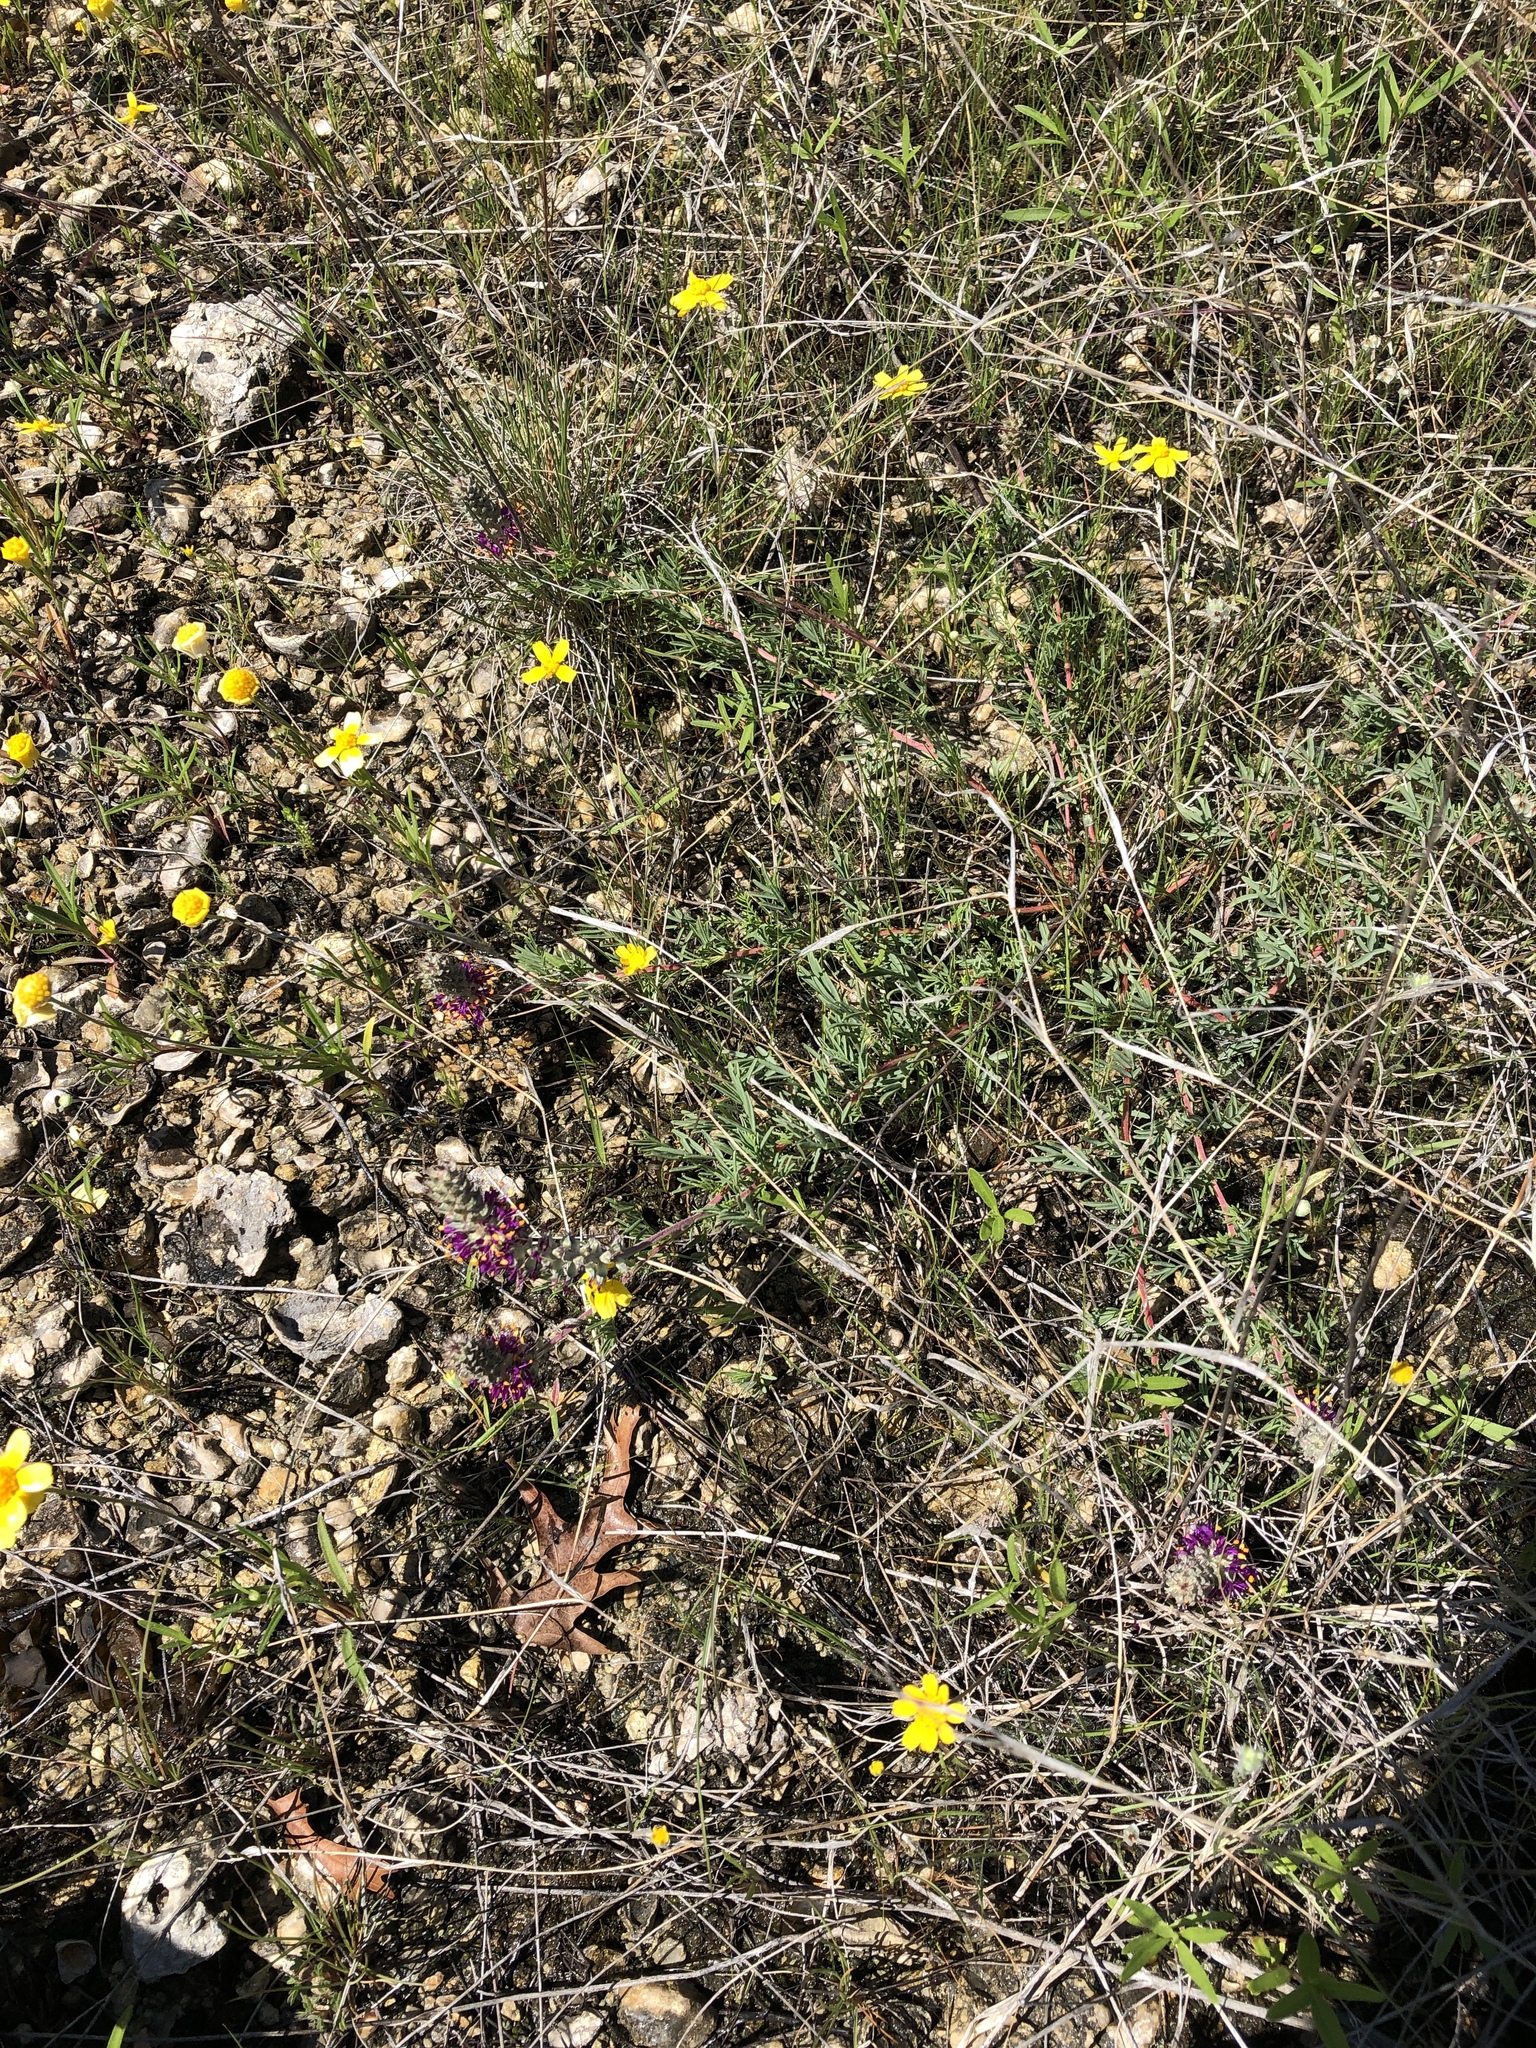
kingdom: Plantae
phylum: Tracheophyta
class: Magnoliopsida
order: Fabales
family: Fabaceae
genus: Dalea
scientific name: Dalea reverchonii
